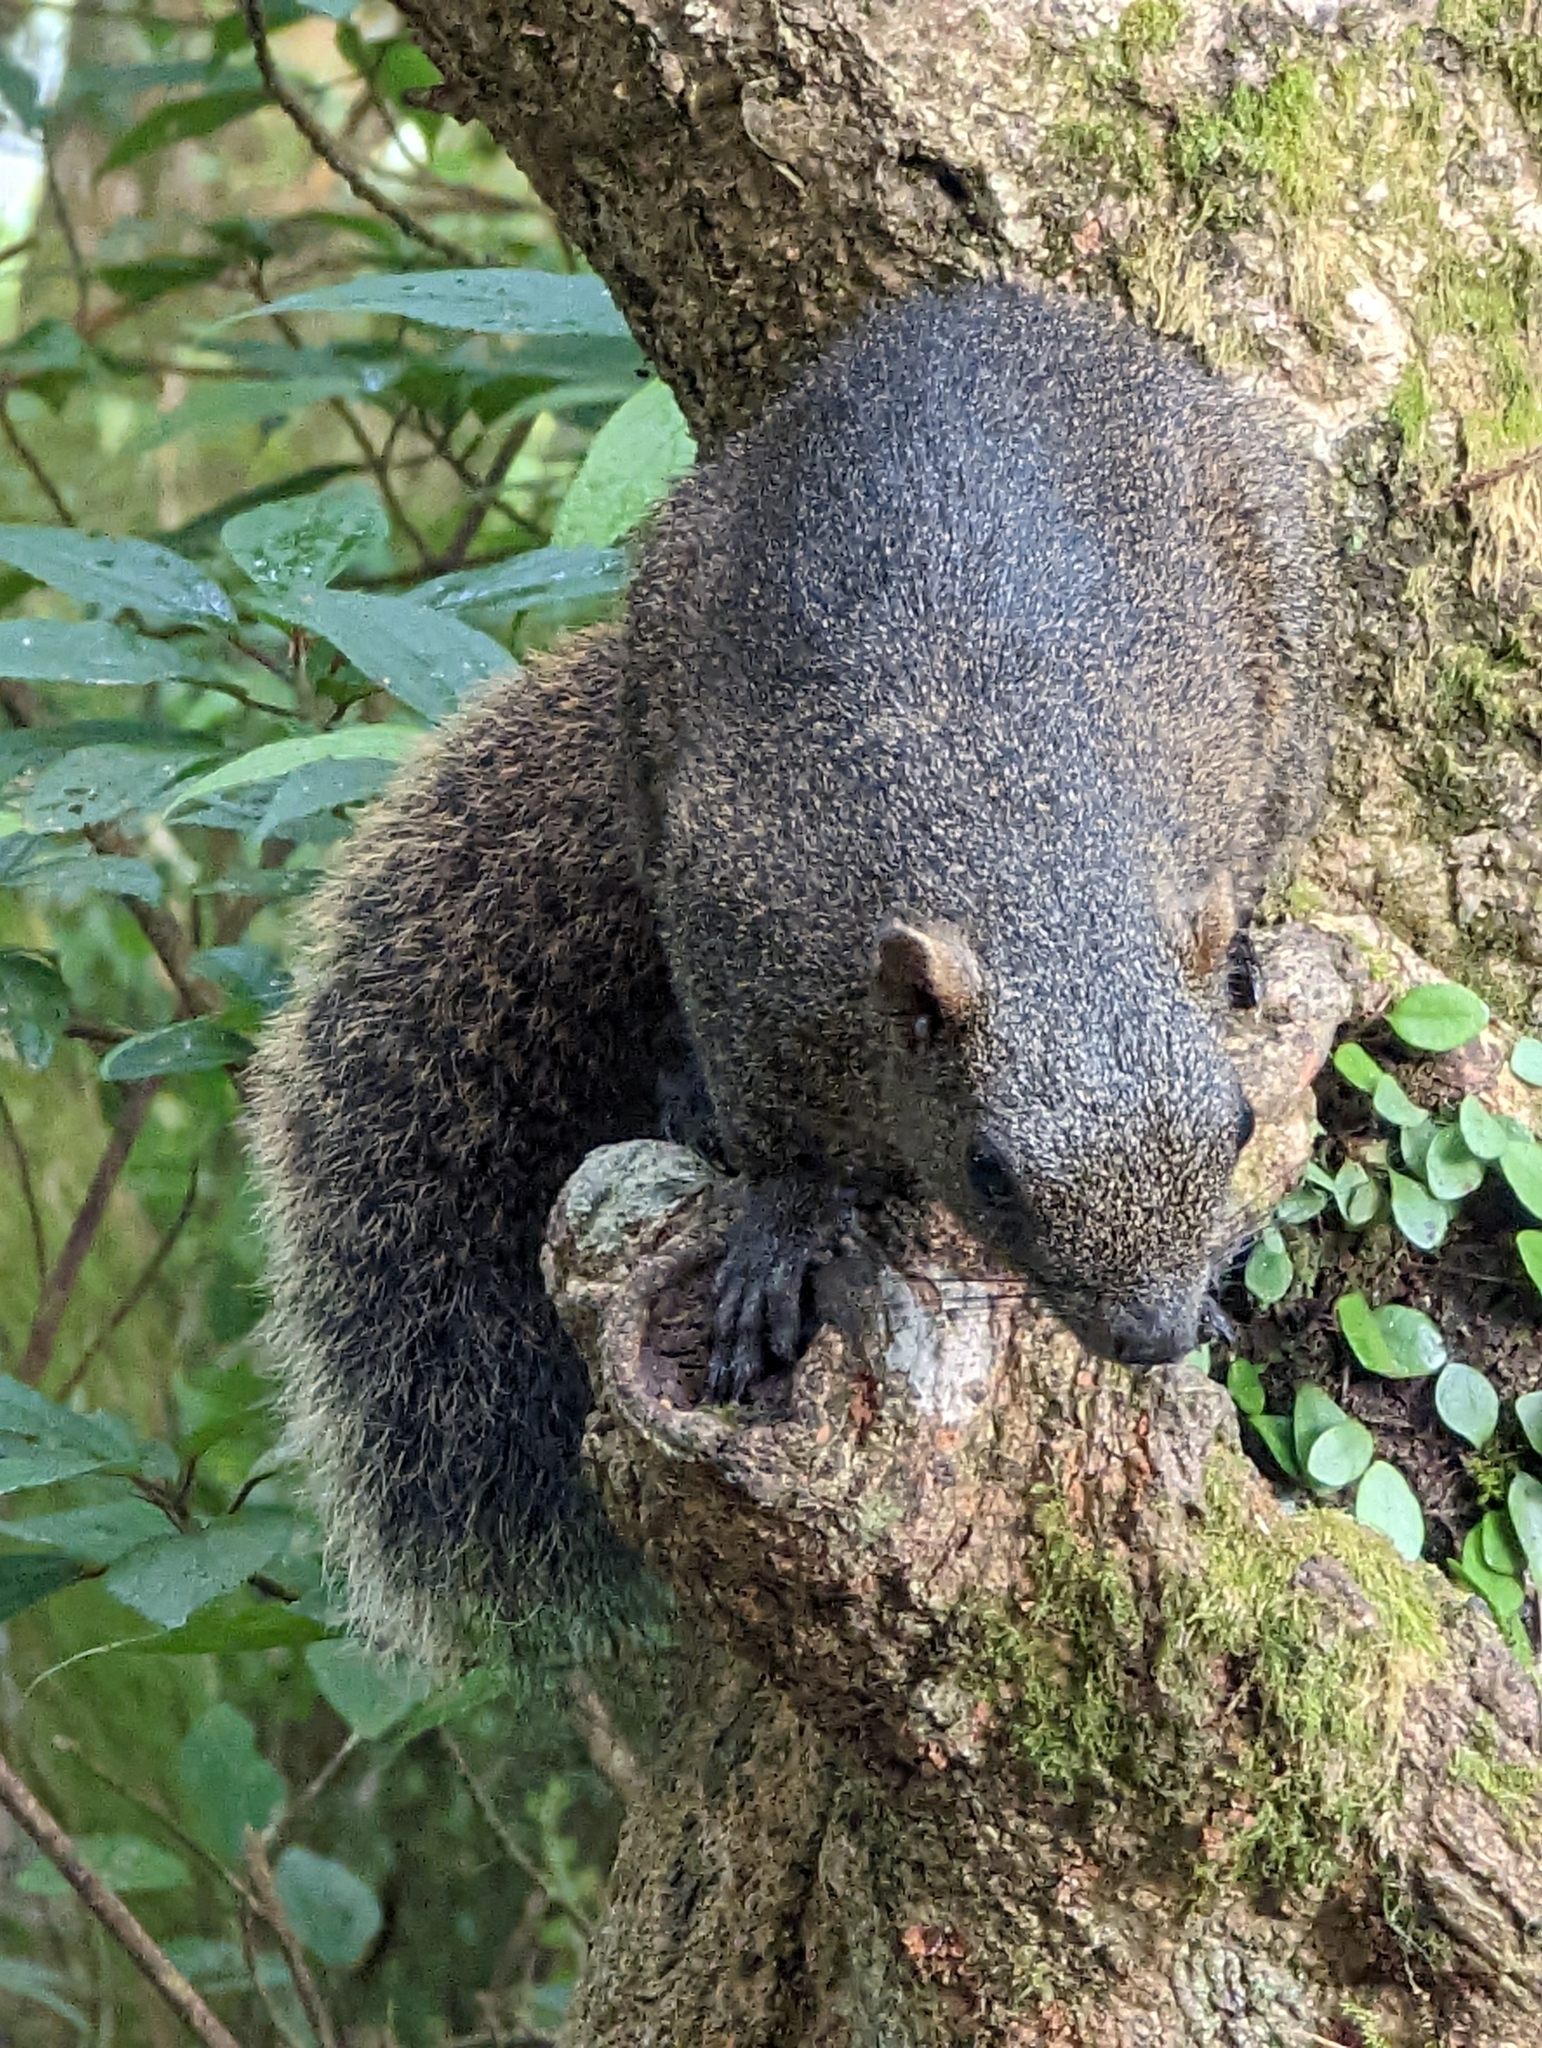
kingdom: Animalia
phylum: Chordata
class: Mammalia
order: Rodentia
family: Sciuridae
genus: Callosciurus
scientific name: Callosciurus erythraeus
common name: Pallas's squirrel
